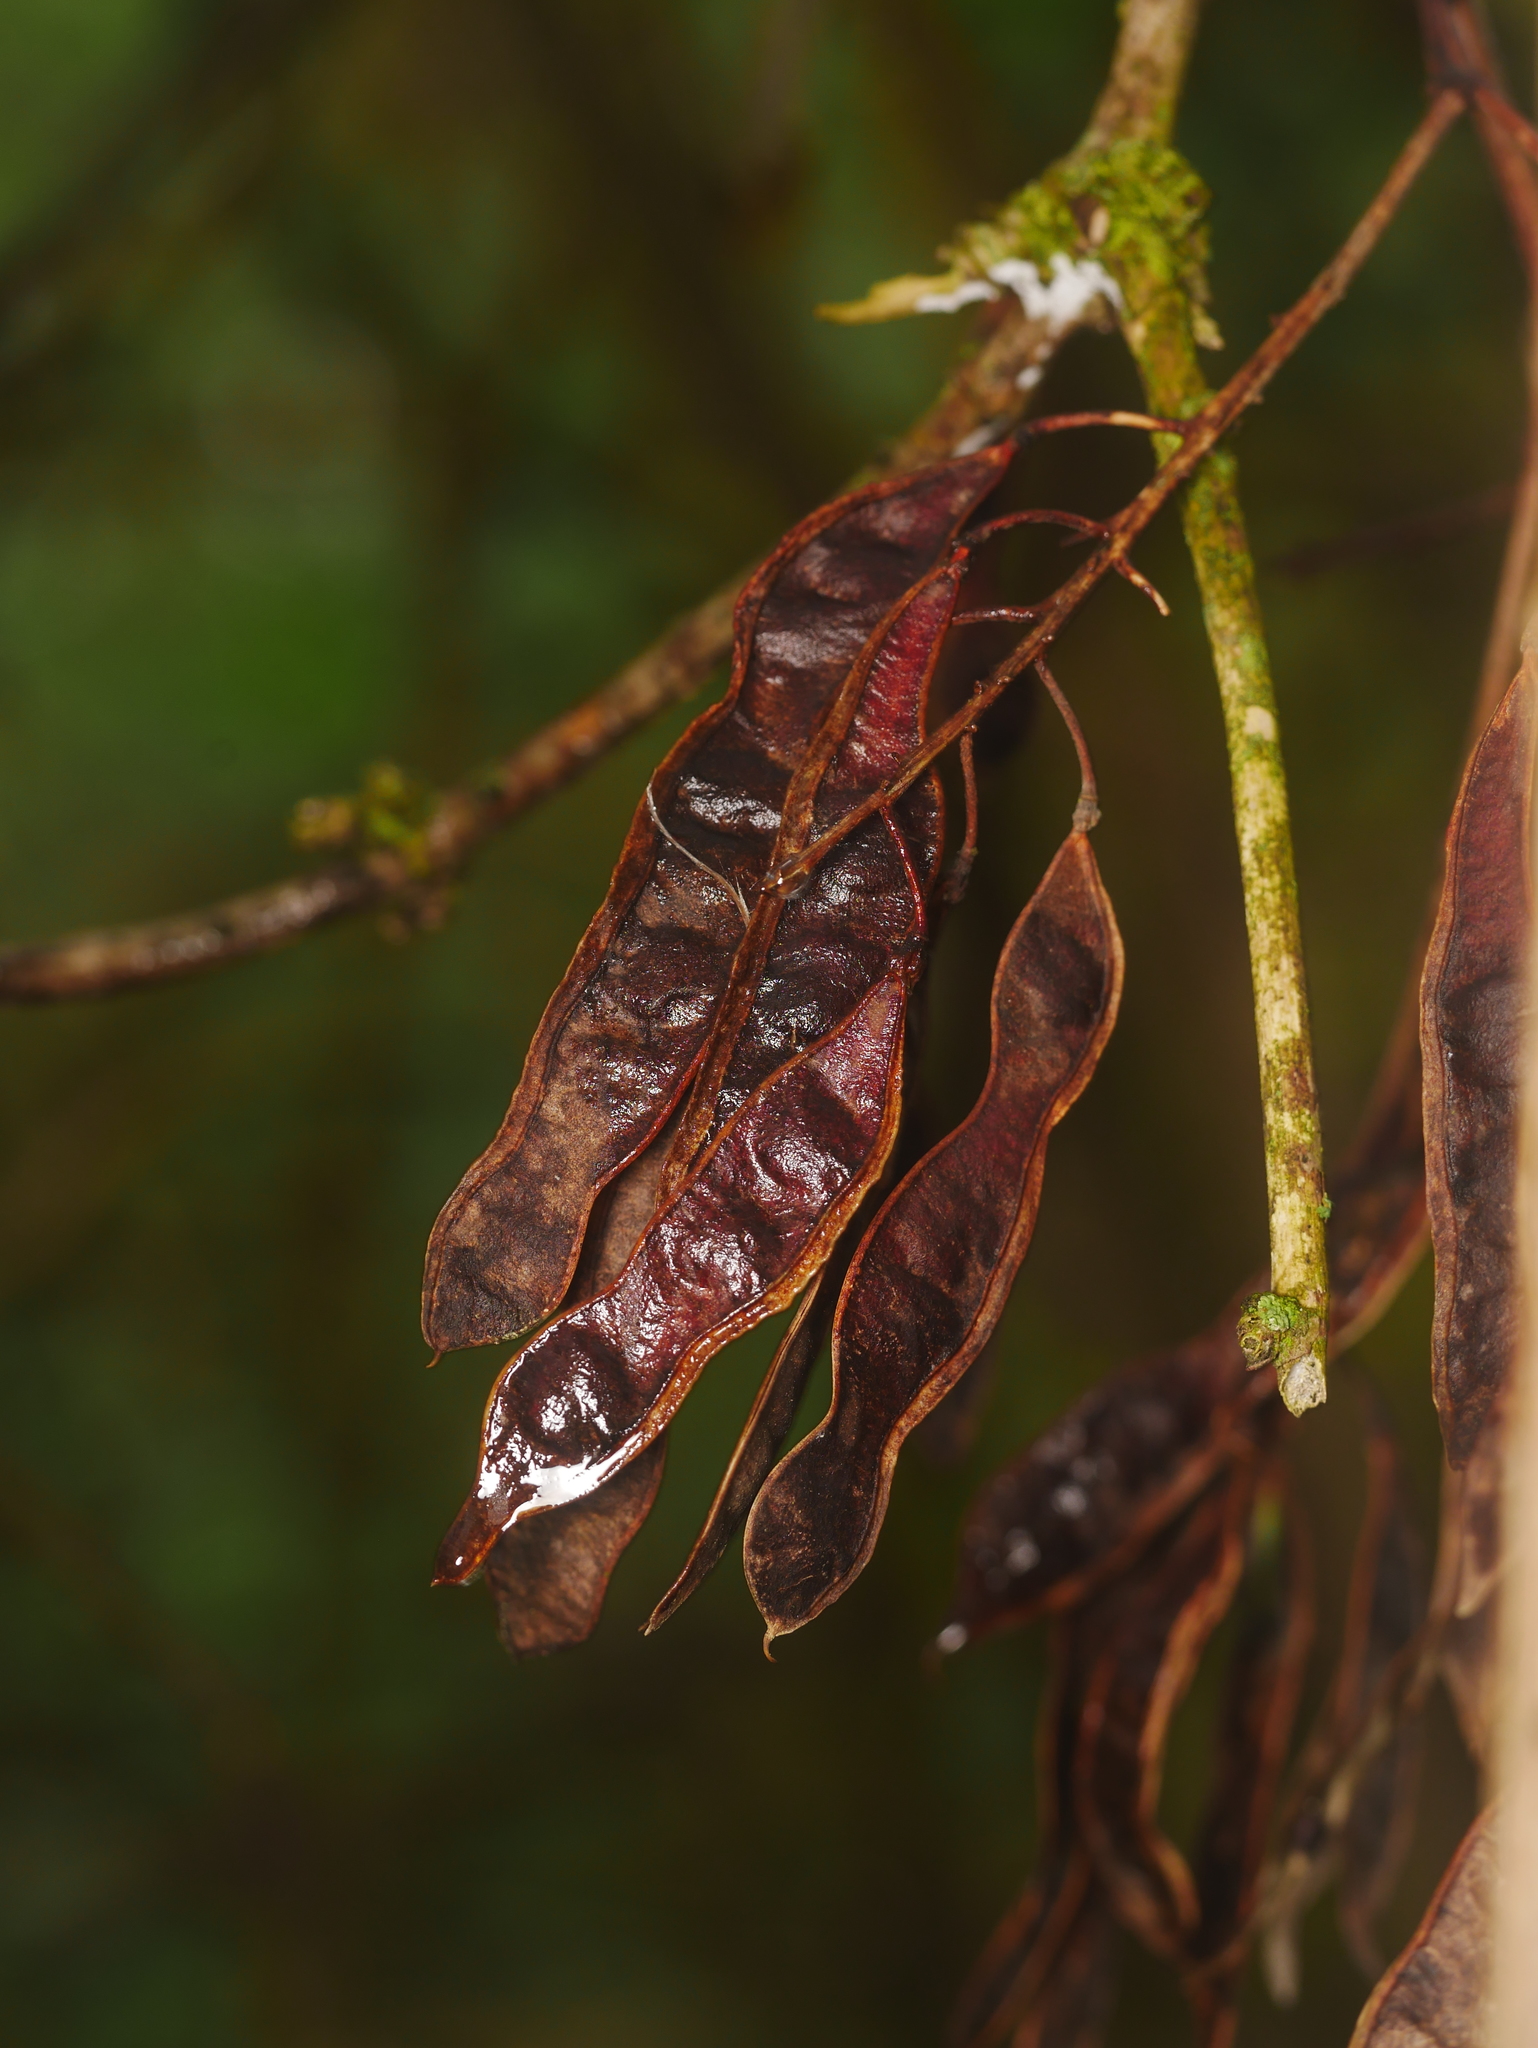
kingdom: Plantae
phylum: Tracheophyta
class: Magnoliopsida
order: Fabales
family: Fabaceae
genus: Robinia
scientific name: Robinia pseudoacacia
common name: Black locust
